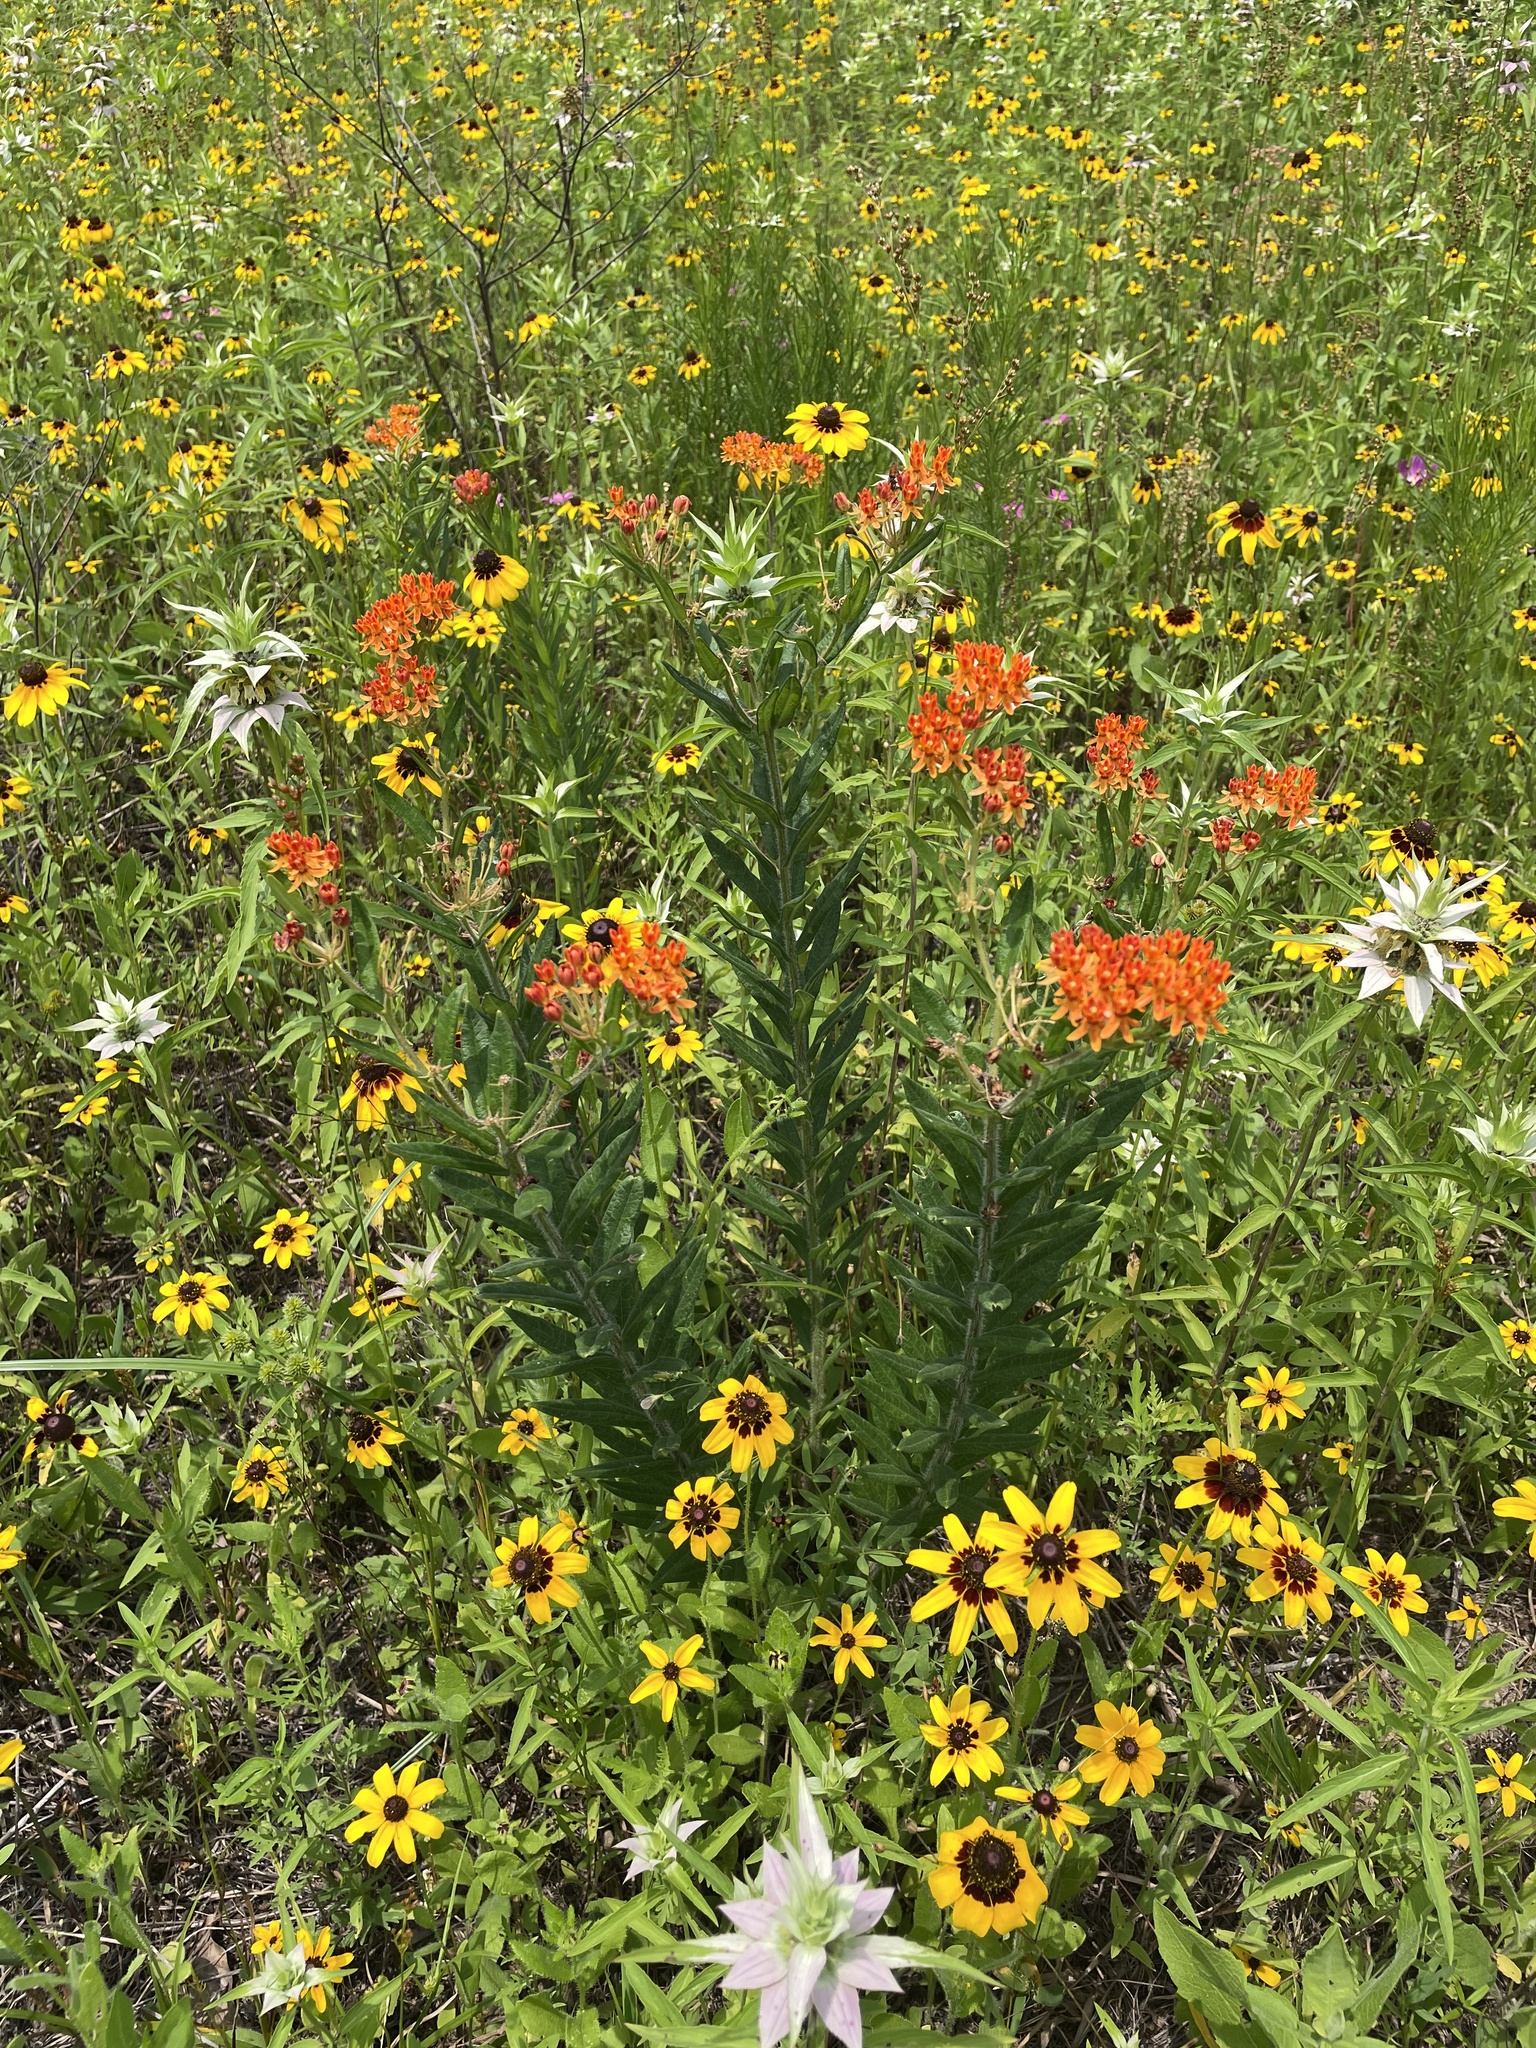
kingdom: Plantae
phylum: Tracheophyta
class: Magnoliopsida
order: Gentianales
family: Apocynaceae
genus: Asclepias
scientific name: Asclepias tuberosa
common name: Butterfly milkweed
